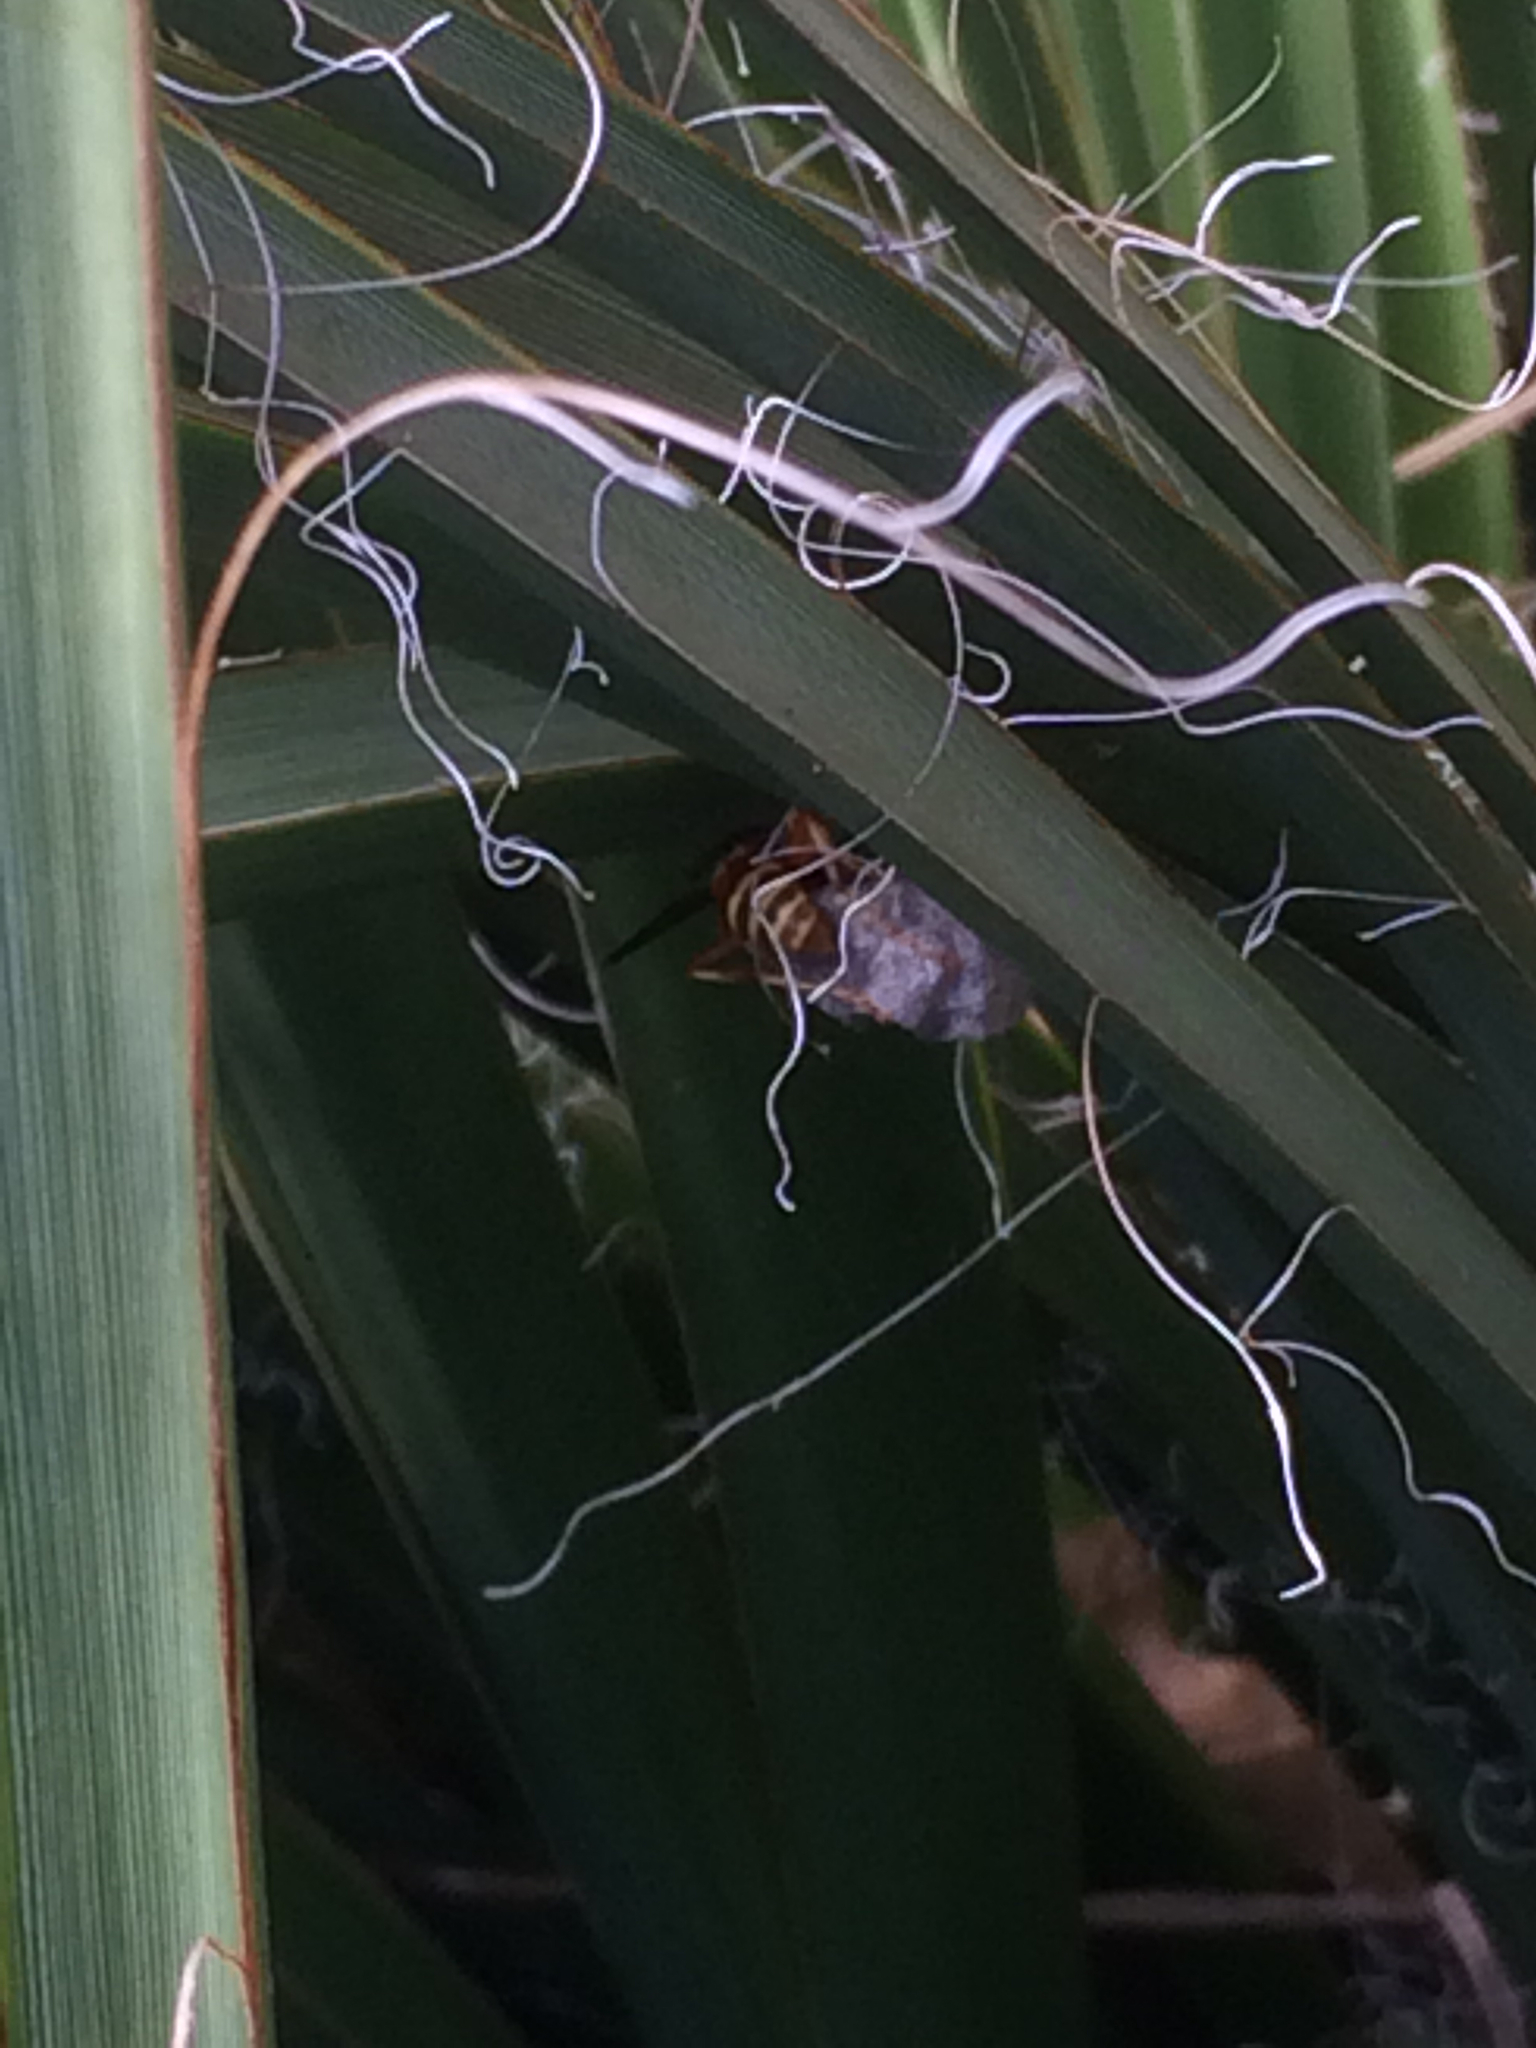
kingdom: Animalia
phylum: Arthropoda
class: Insecta
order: Hymenoptera
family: Eumenidae
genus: Polistes
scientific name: Polistes
